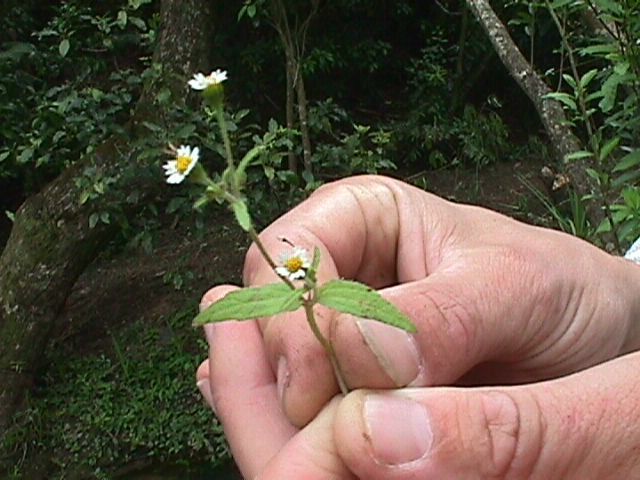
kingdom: Plantae
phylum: Tracheophyta
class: Magnoliopsida
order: Asterales
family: Asteraceae
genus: Galinsoga
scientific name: Galinsoga quadriradiata
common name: Shaggy soldier
